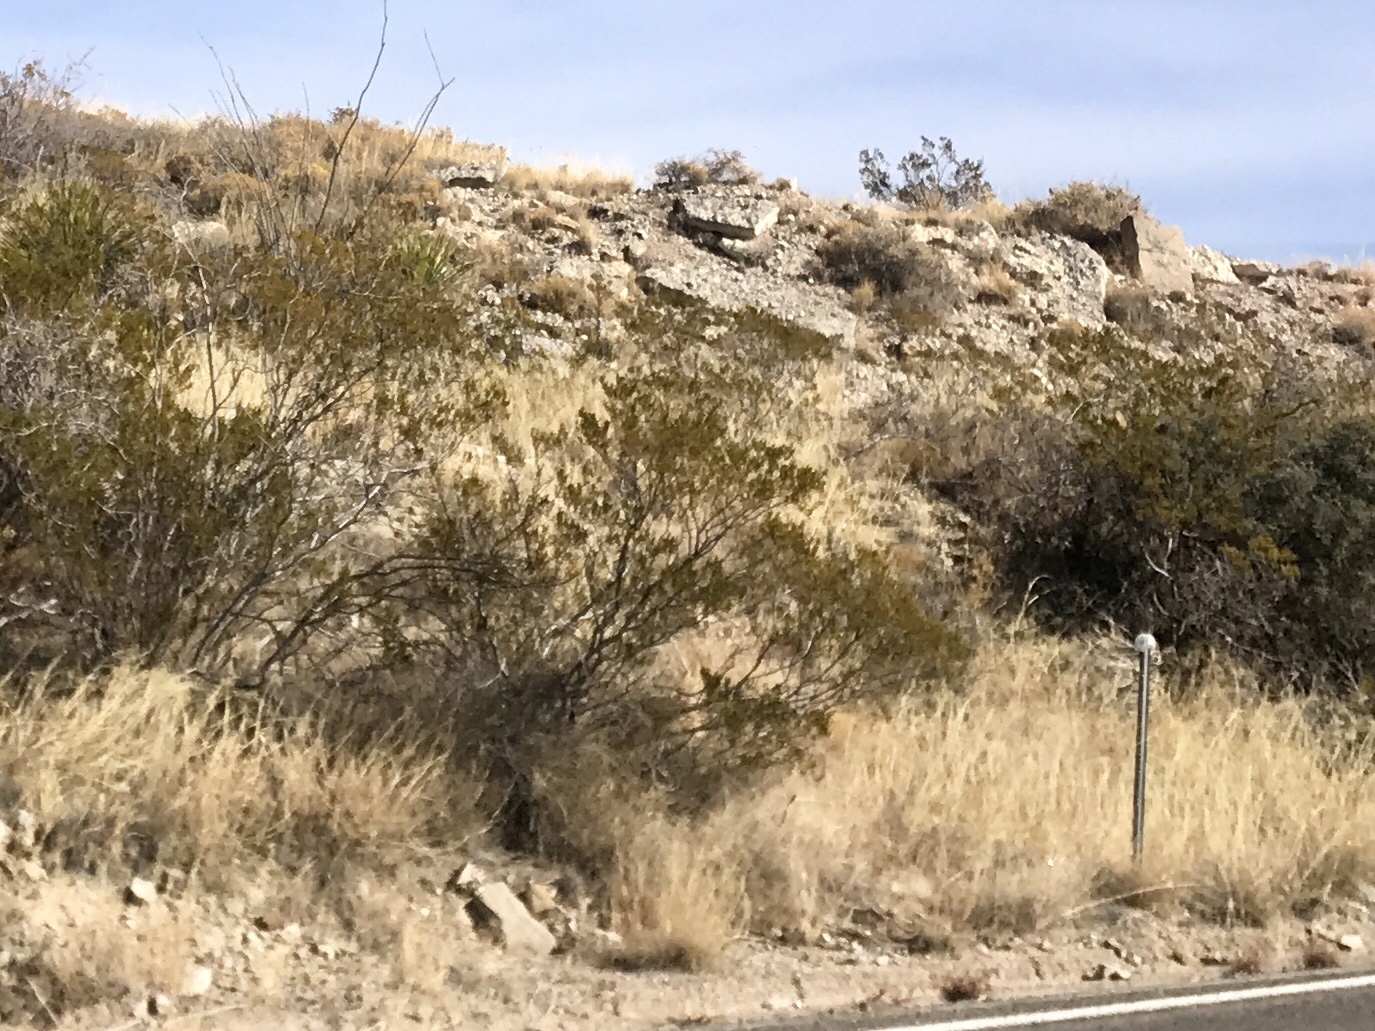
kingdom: Plantae
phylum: Tracheophyta
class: Magnoliopsida
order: Zygophyllales
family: Zygophyllaceae
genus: Larrea
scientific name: Larrea tridentata
